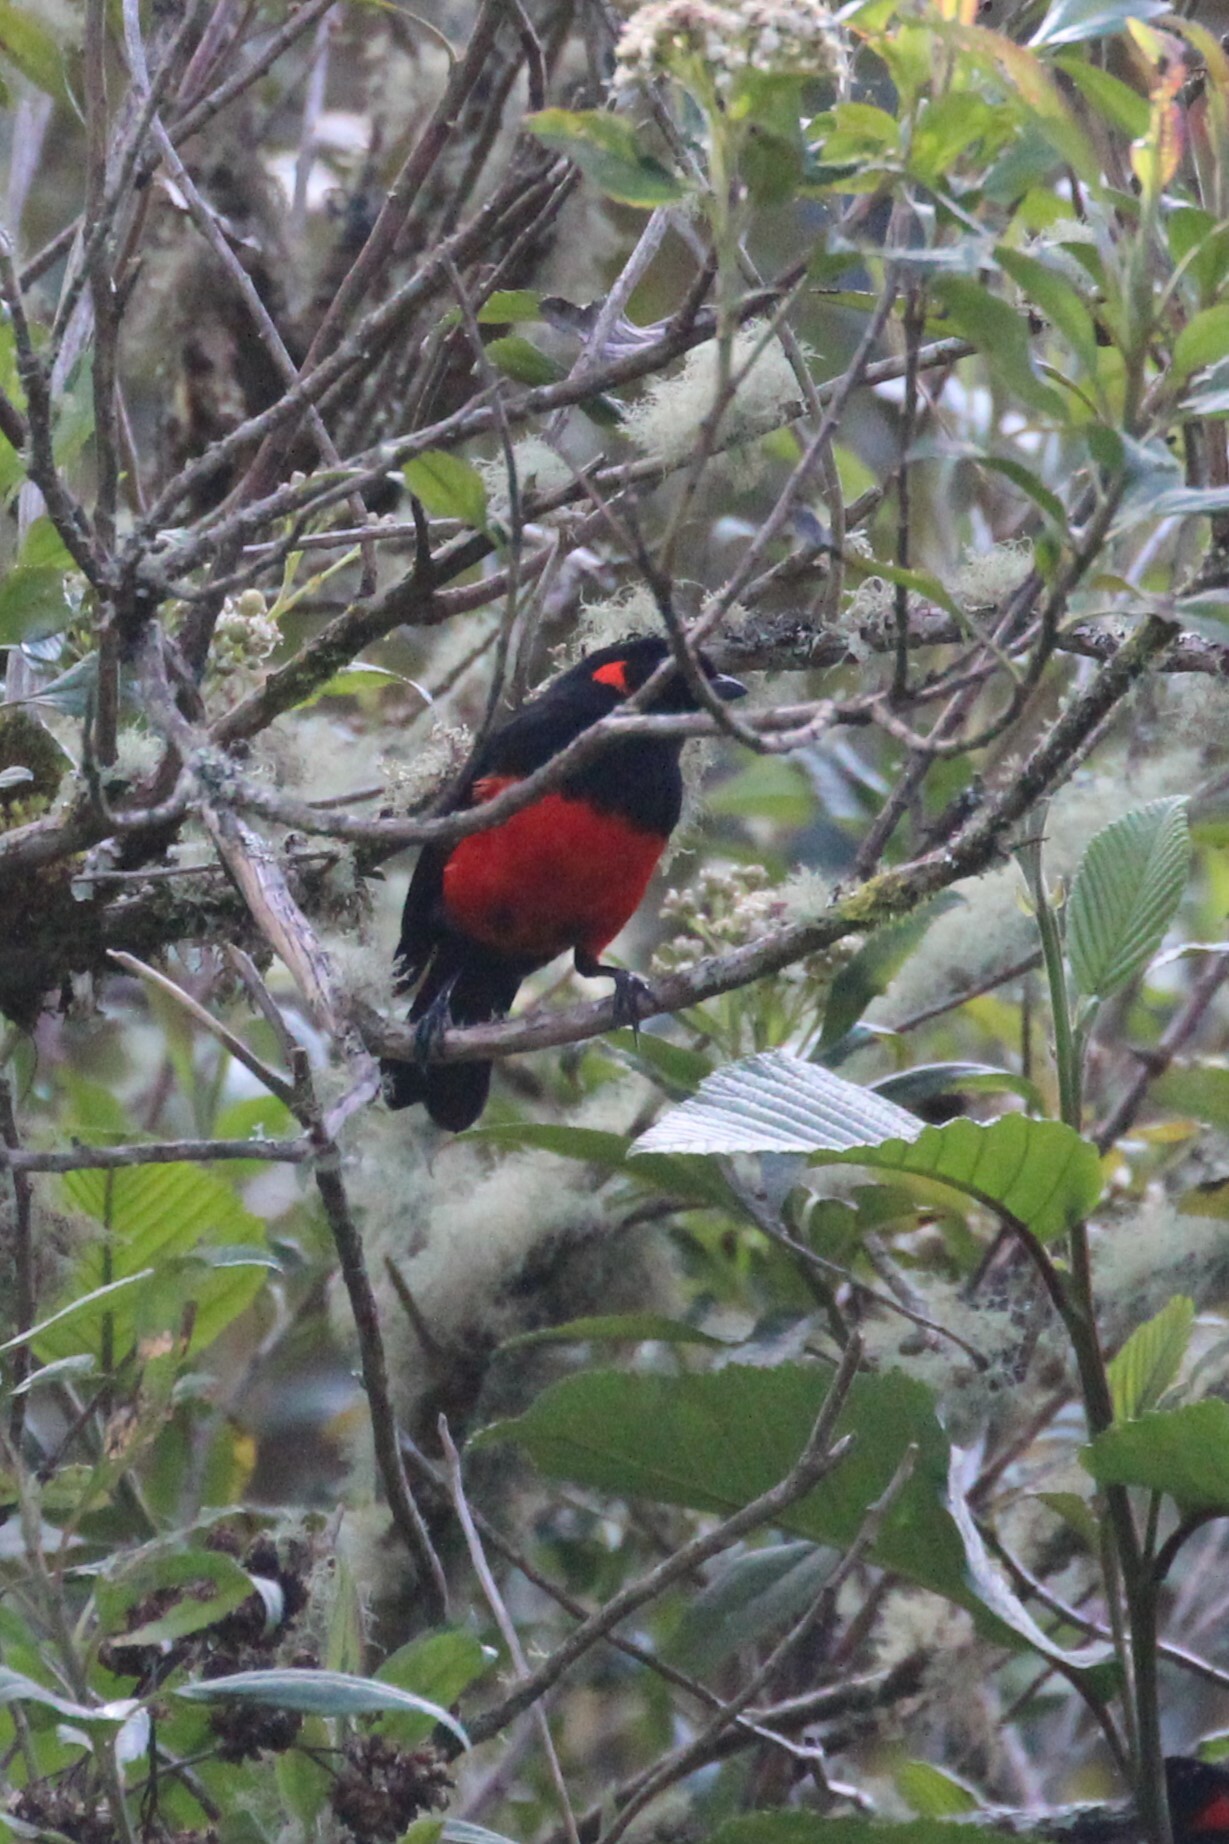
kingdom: Animalia
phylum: Chordata
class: Aves
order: Passeriformes
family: Thraupidae
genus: Anisognathus
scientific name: Anisognathus igniventris
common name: Scarlet-bellied mountain tanager
